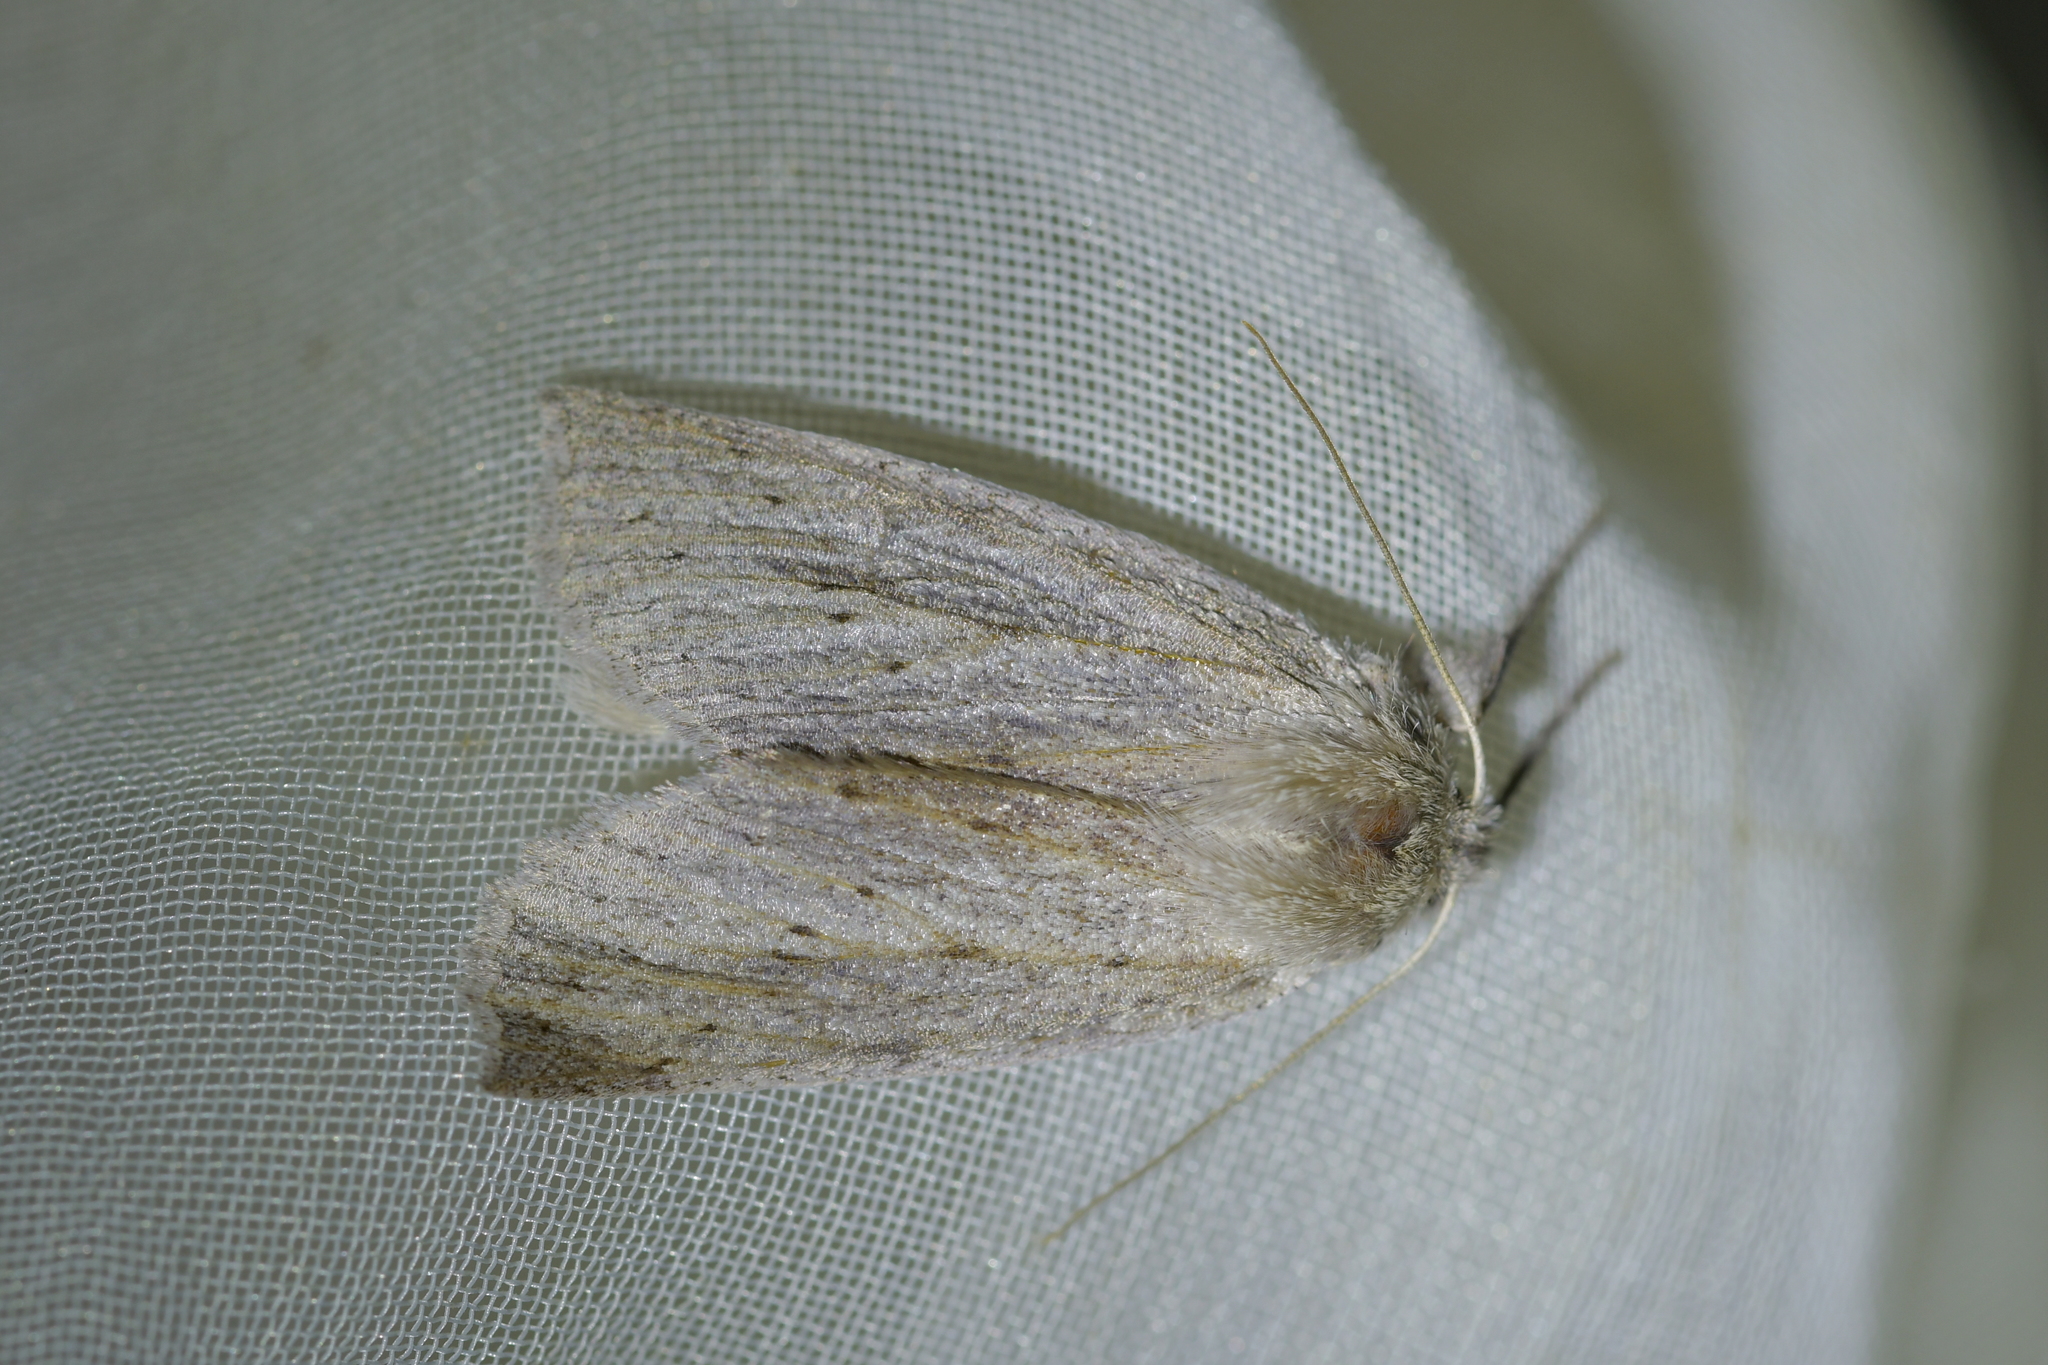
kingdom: Animalia
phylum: Arthropoda
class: Insecta
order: Lepidoptera
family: Geometridae
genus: Declana
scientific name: Declana leptomera
